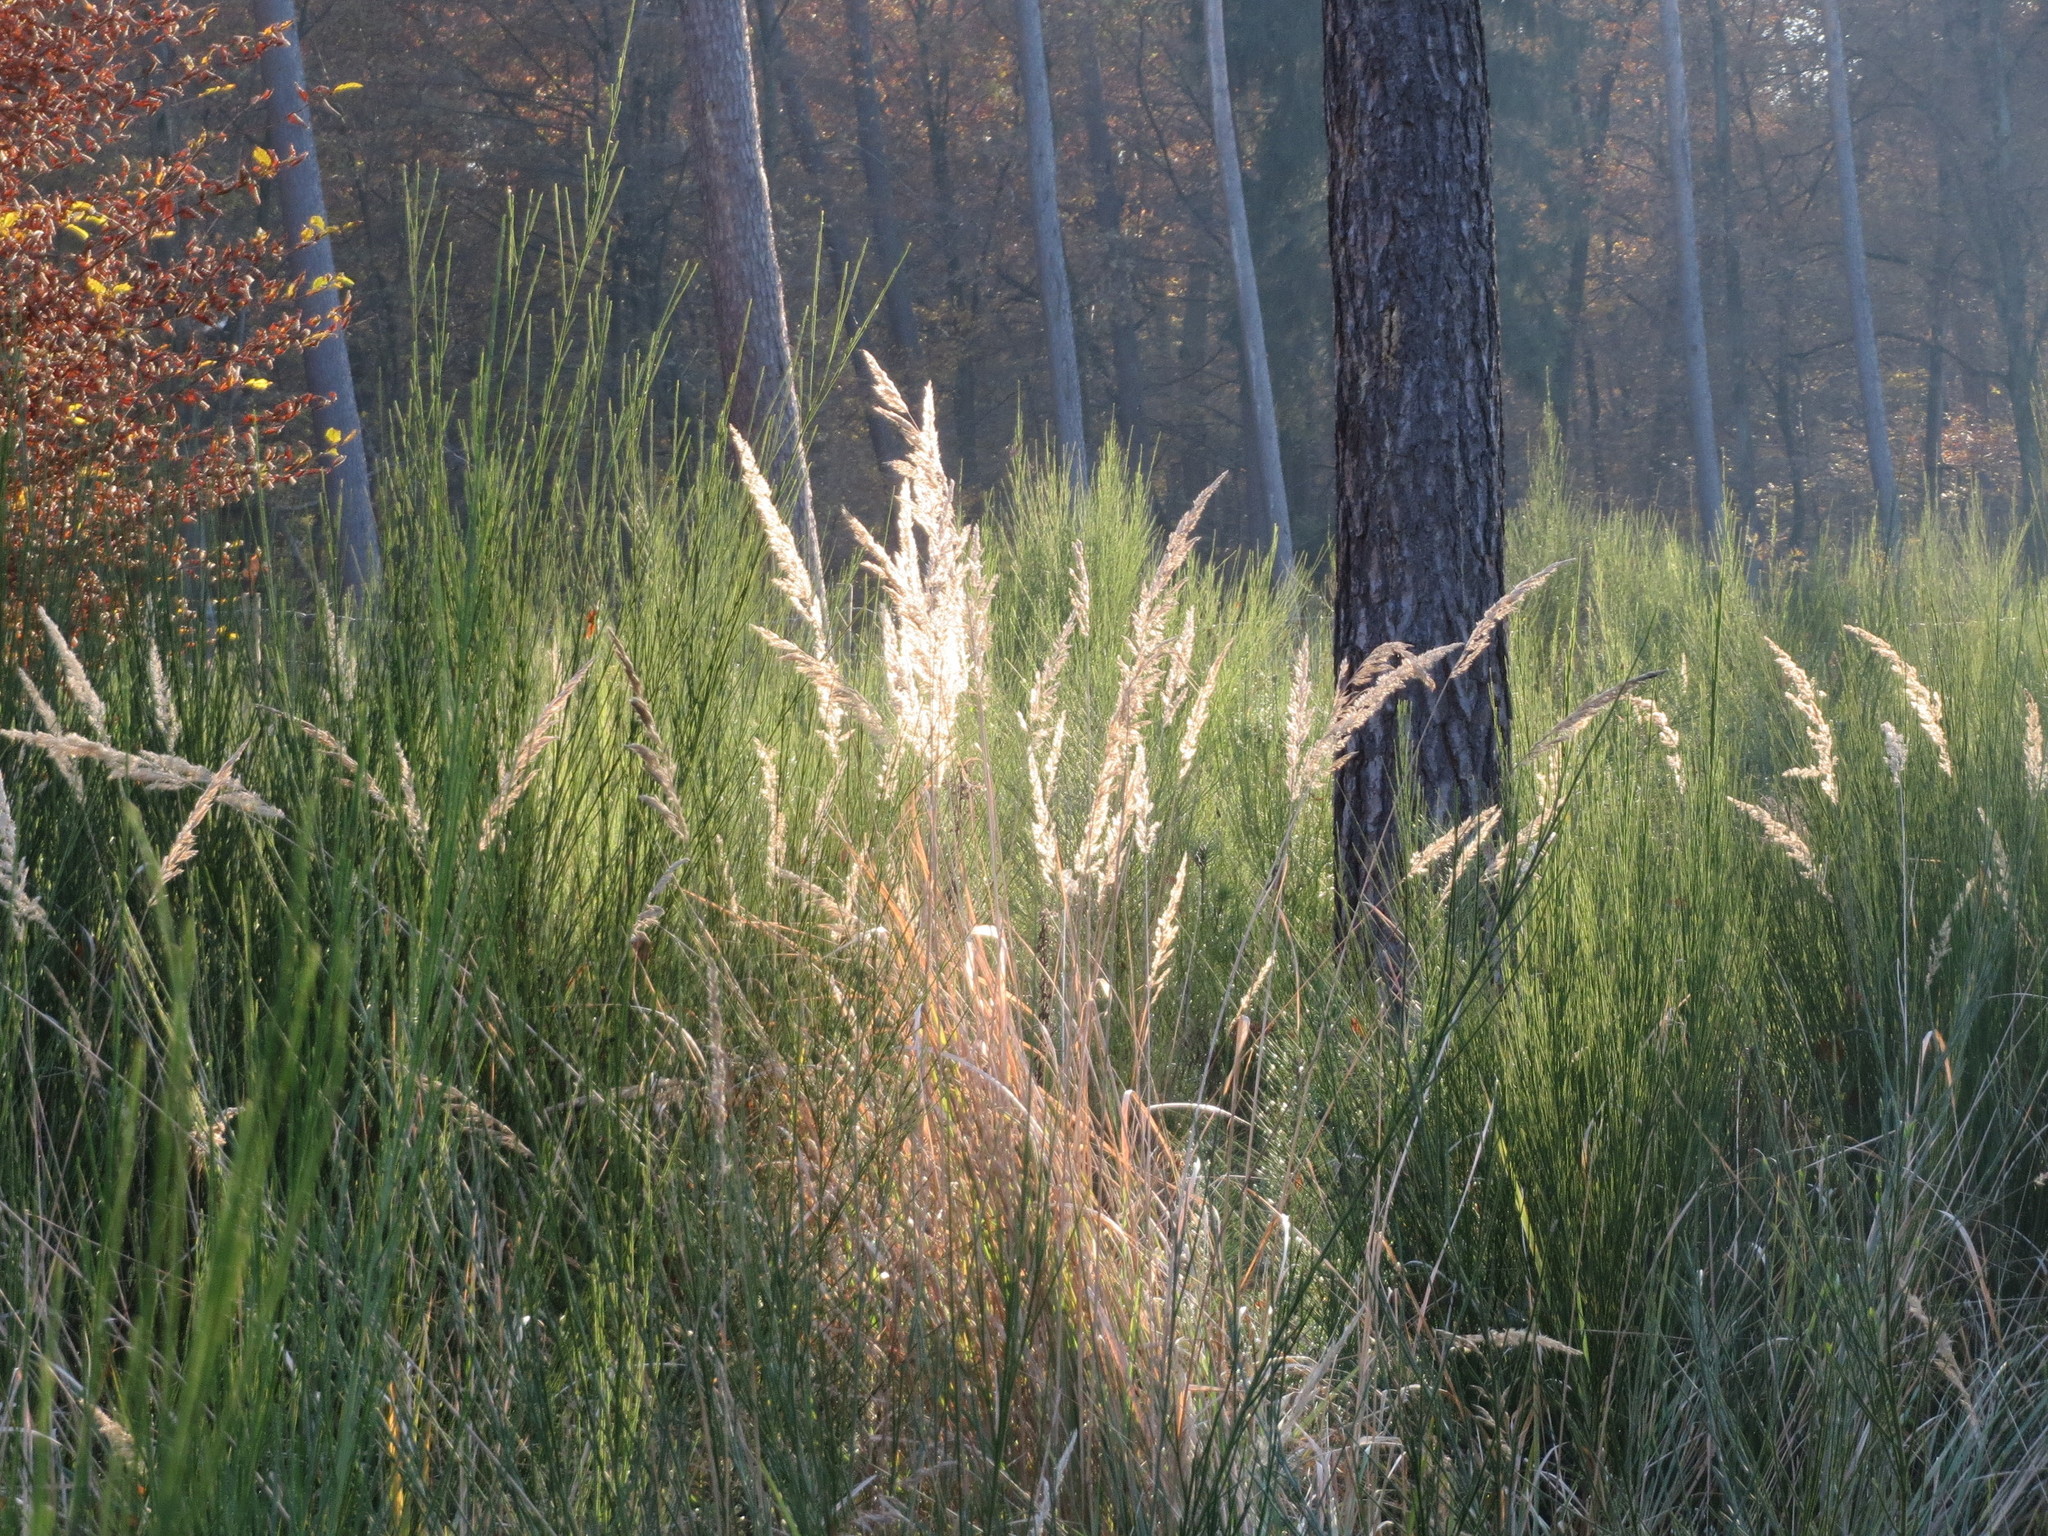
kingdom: Plantae
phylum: Tracheophyta
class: Liliopsida
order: Poales
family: Poaceae
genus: Calamagrostis
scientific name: Calamagrostis epigejos
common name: Wood small-reed
